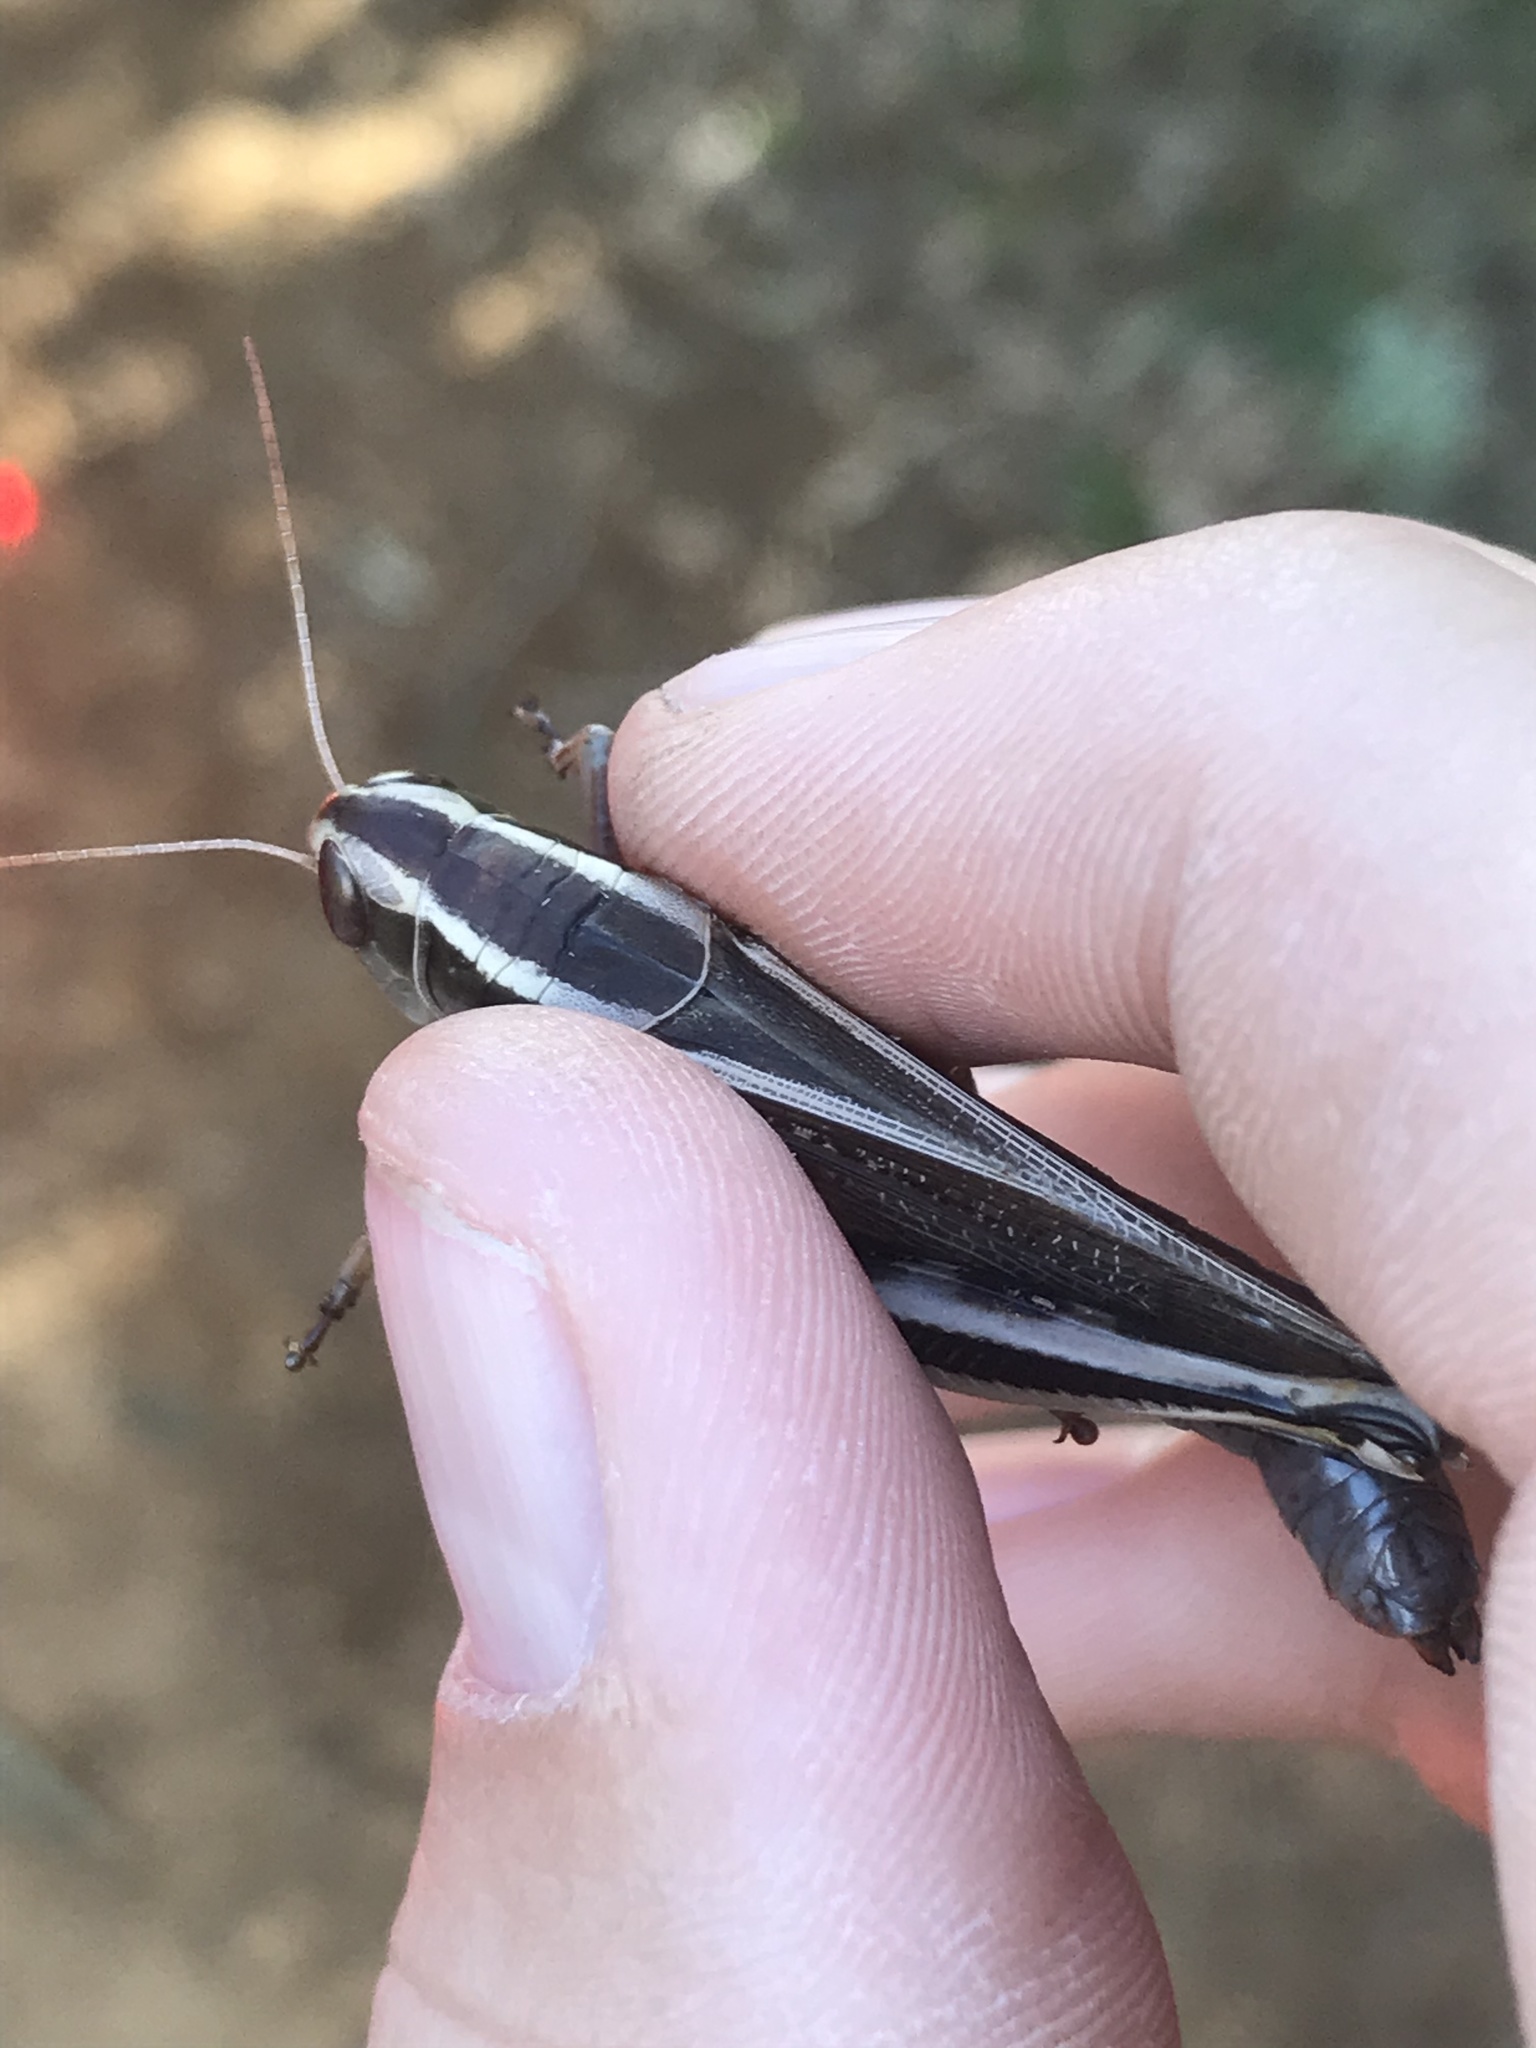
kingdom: Animalia
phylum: Arthropoda
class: Insecta
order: Orthoptera
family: Acrididae
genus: Melanoplus
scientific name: Melanoplus bivittatus
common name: Two-striped grasshopper
